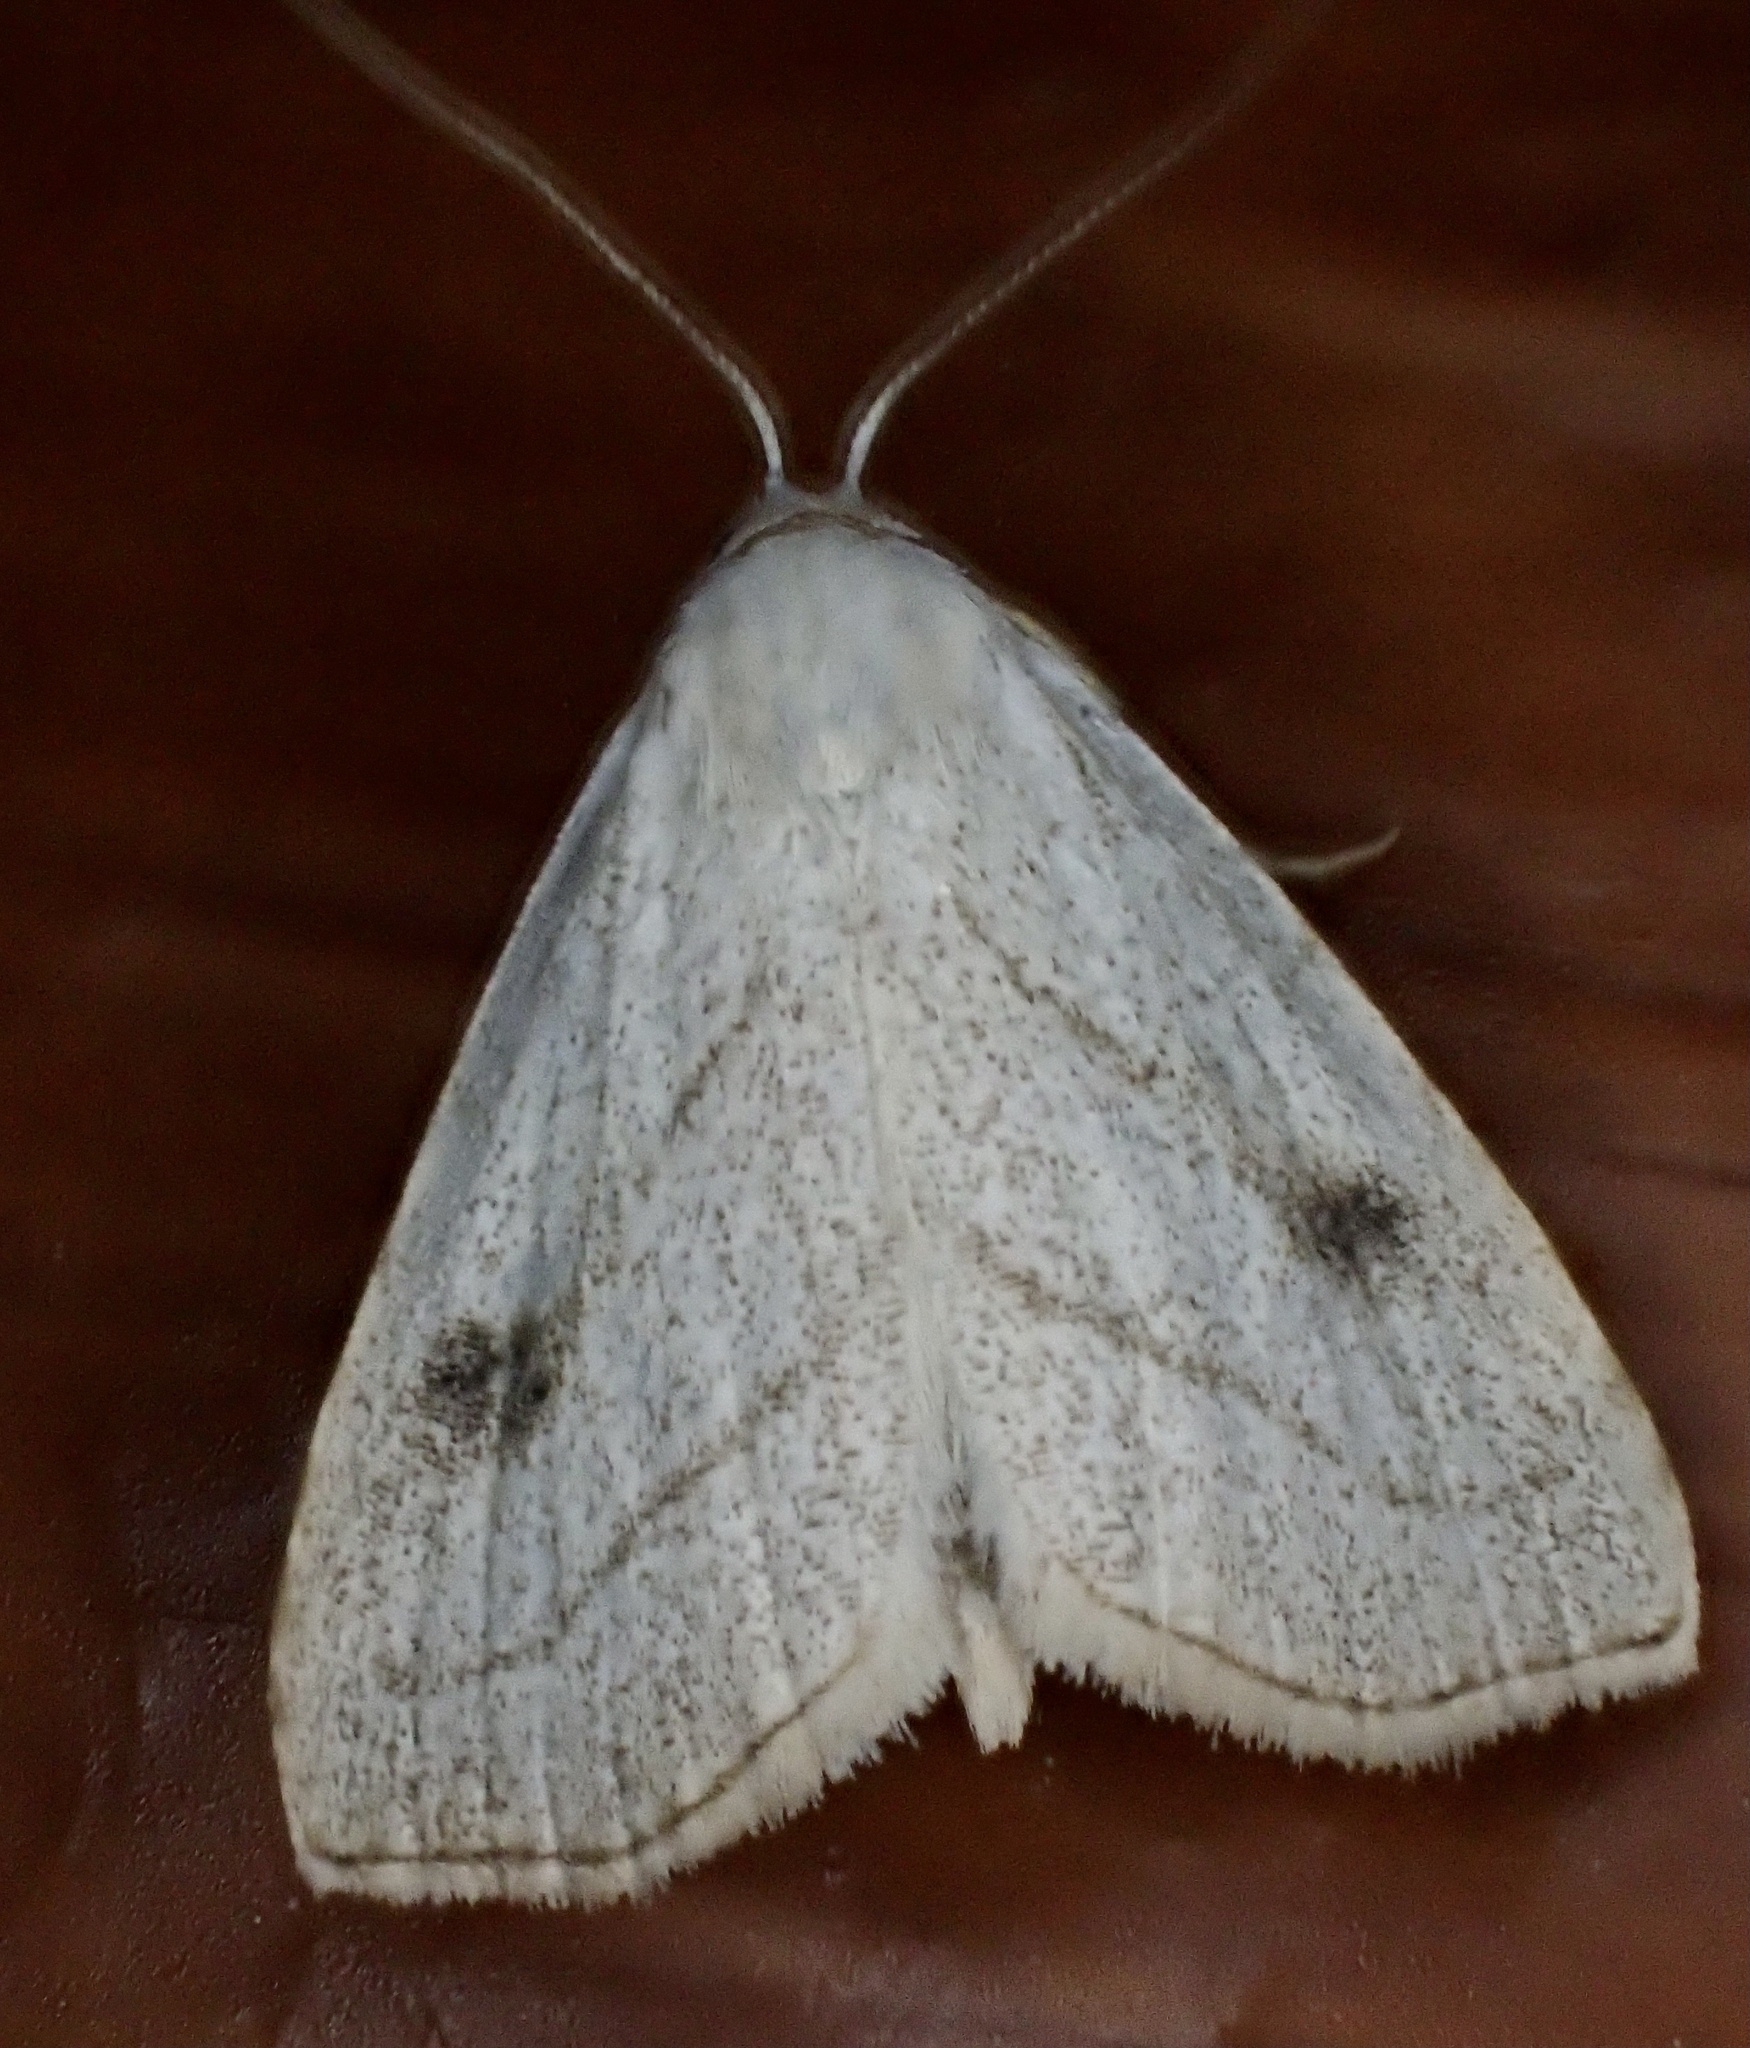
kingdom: Animalia
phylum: Arthropoda
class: Insecta
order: Lepidoptera
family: Erebidae
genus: Rivula
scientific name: Rivula propinqualis
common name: Spotted grass moth
